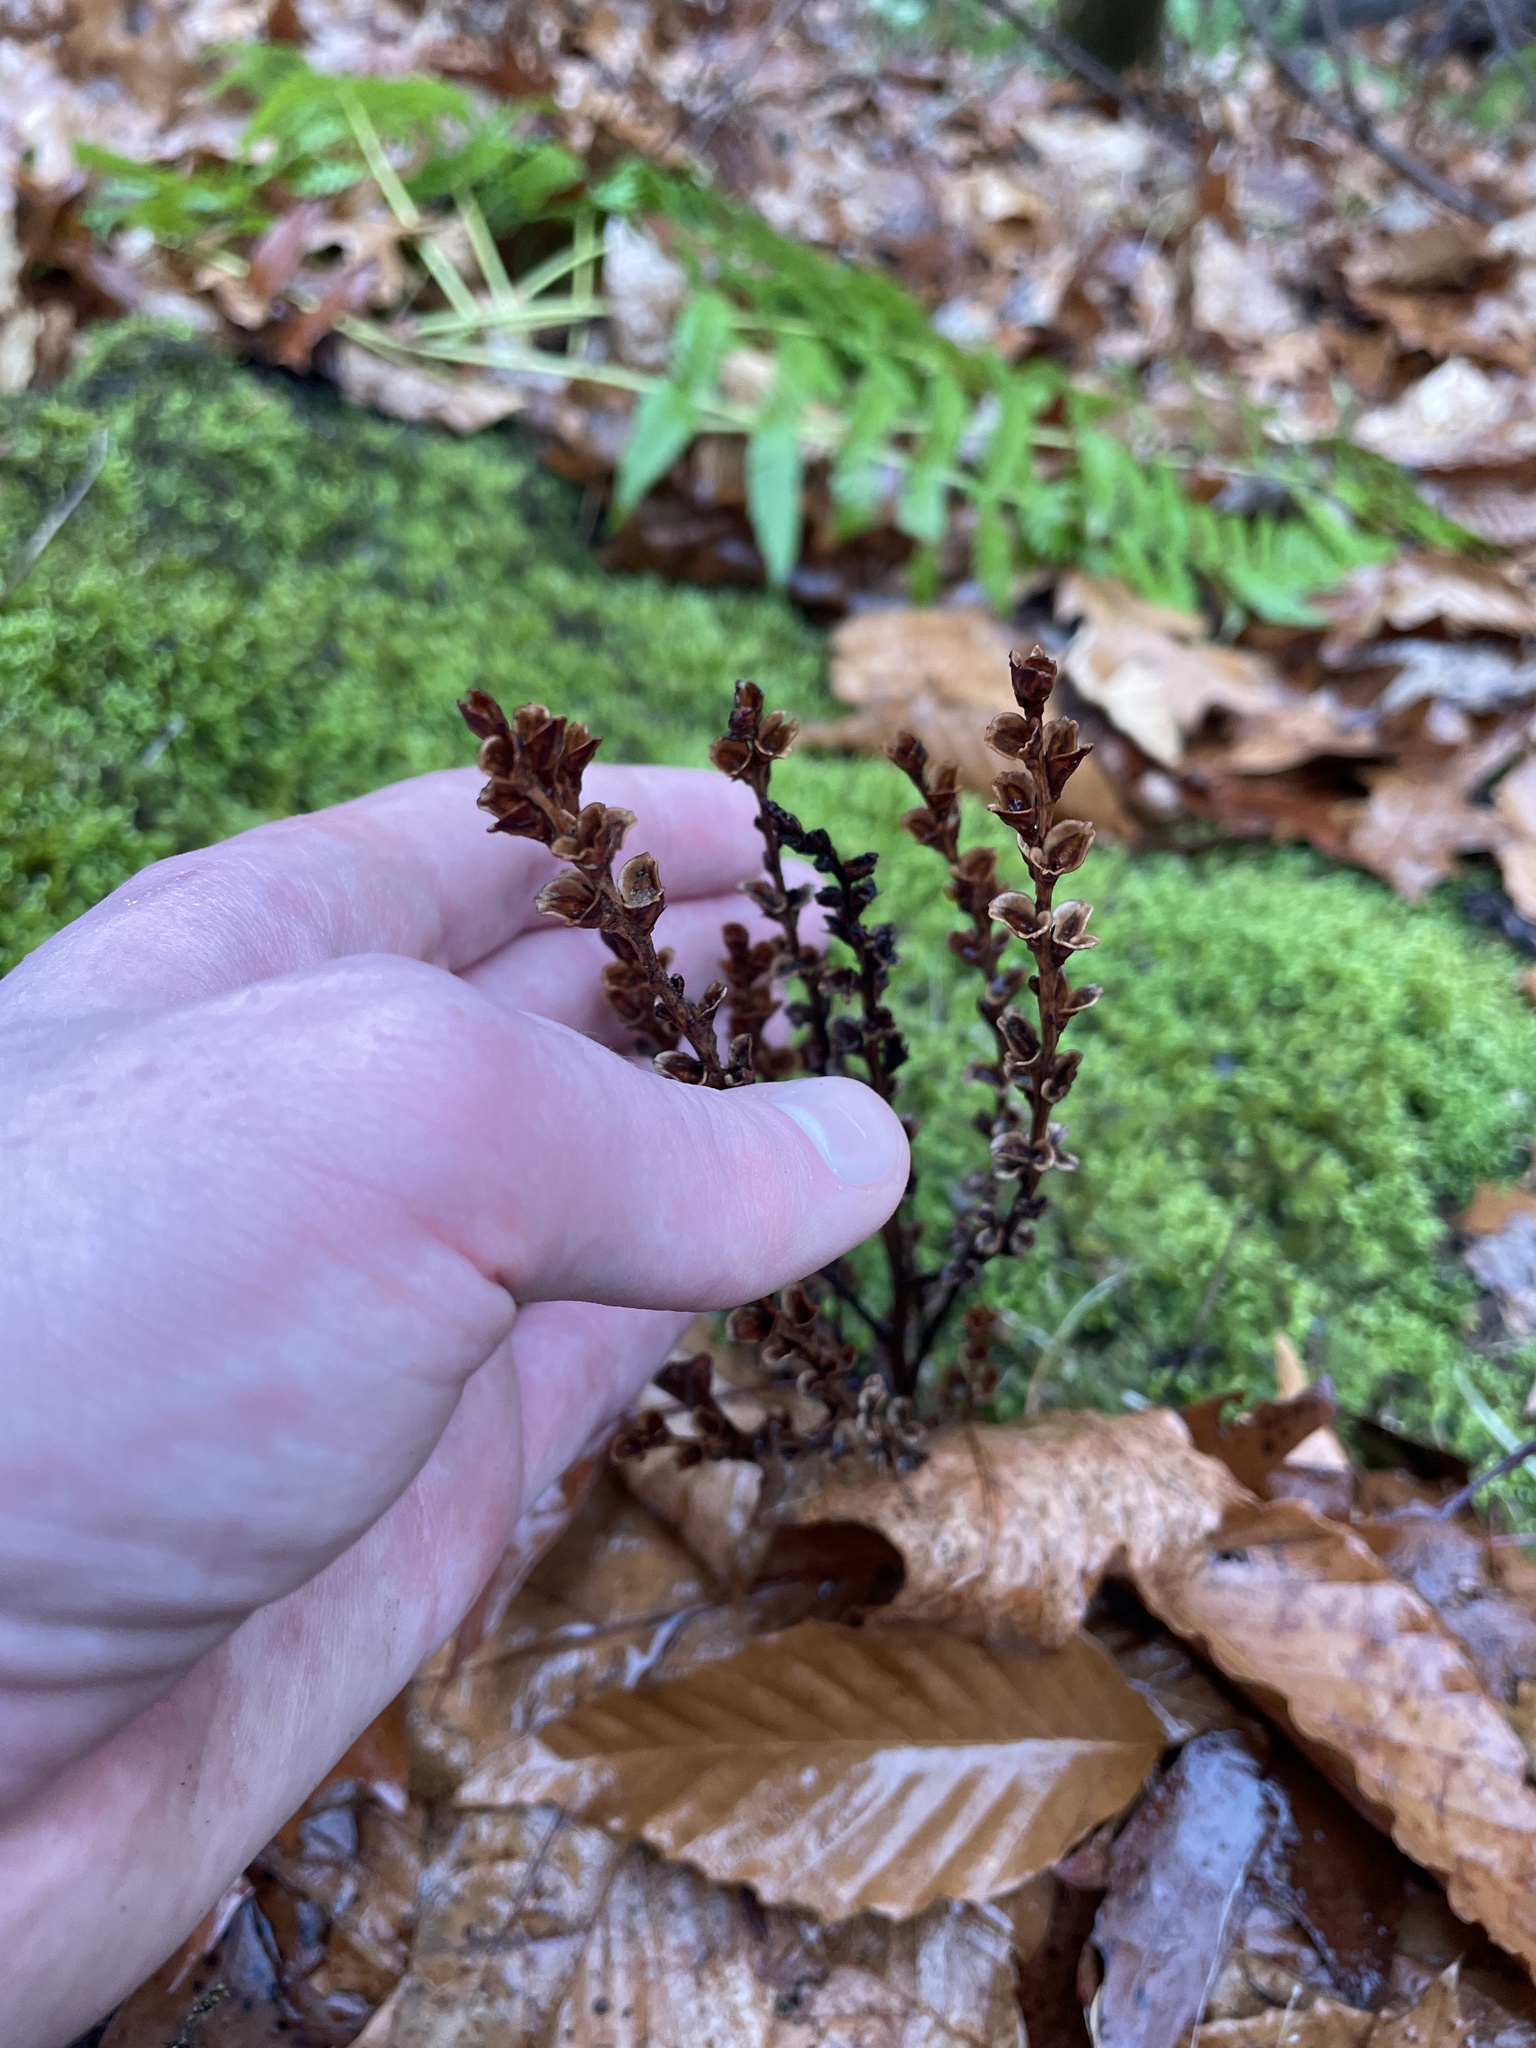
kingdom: Plantae
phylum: Tracheophyta
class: Magnoliopsida
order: Lamiales
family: Orobanchaceae
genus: Epifagus
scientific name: Epifagus virginiana
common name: Beechdrops
